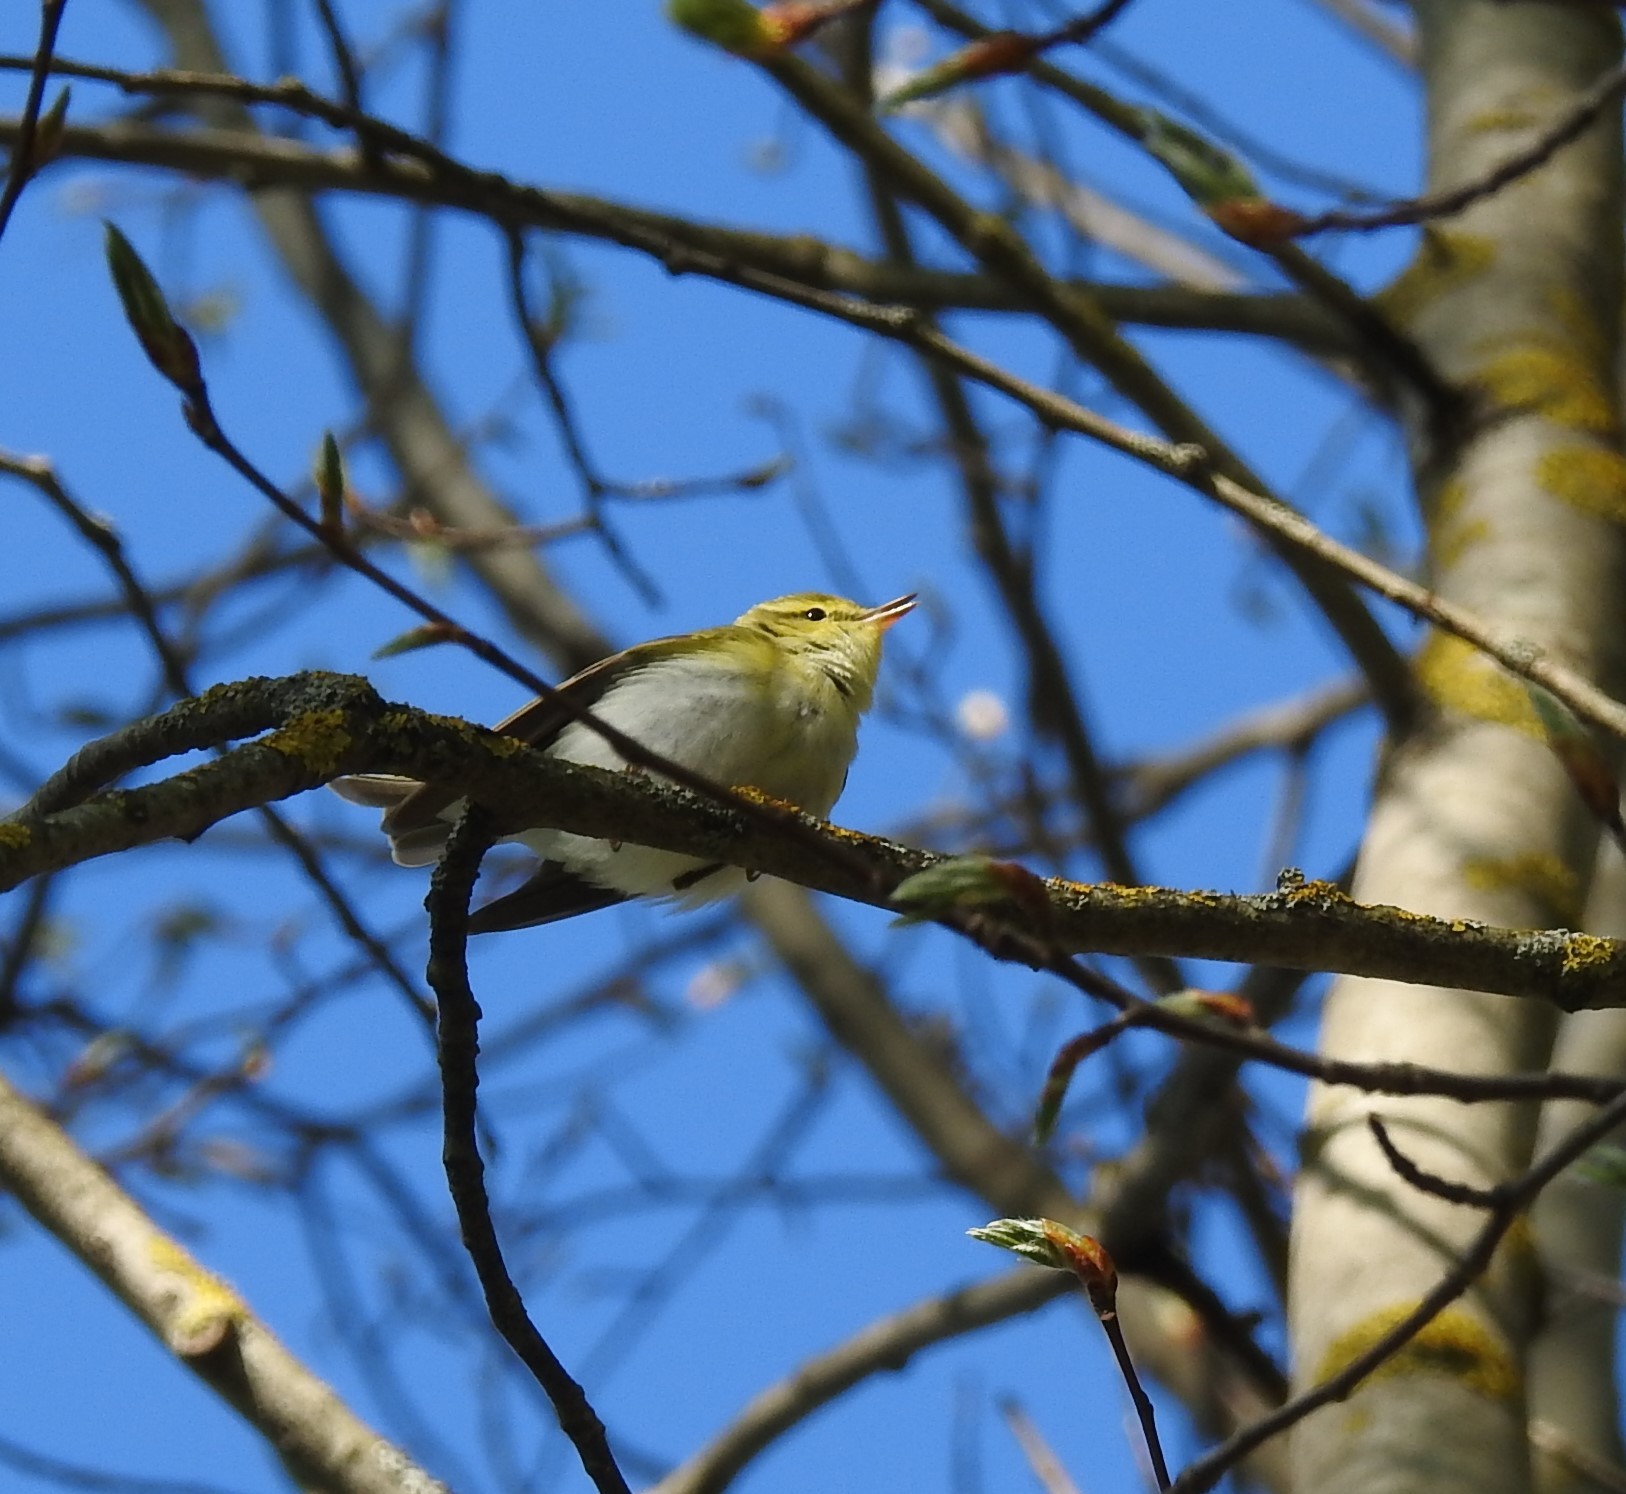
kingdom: Animalia
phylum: Chordata
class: Aves
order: Passeriformes
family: Phylloscopidae
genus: Phylloscopus
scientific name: Phylloscopus sibillatrix
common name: Wood warbler
